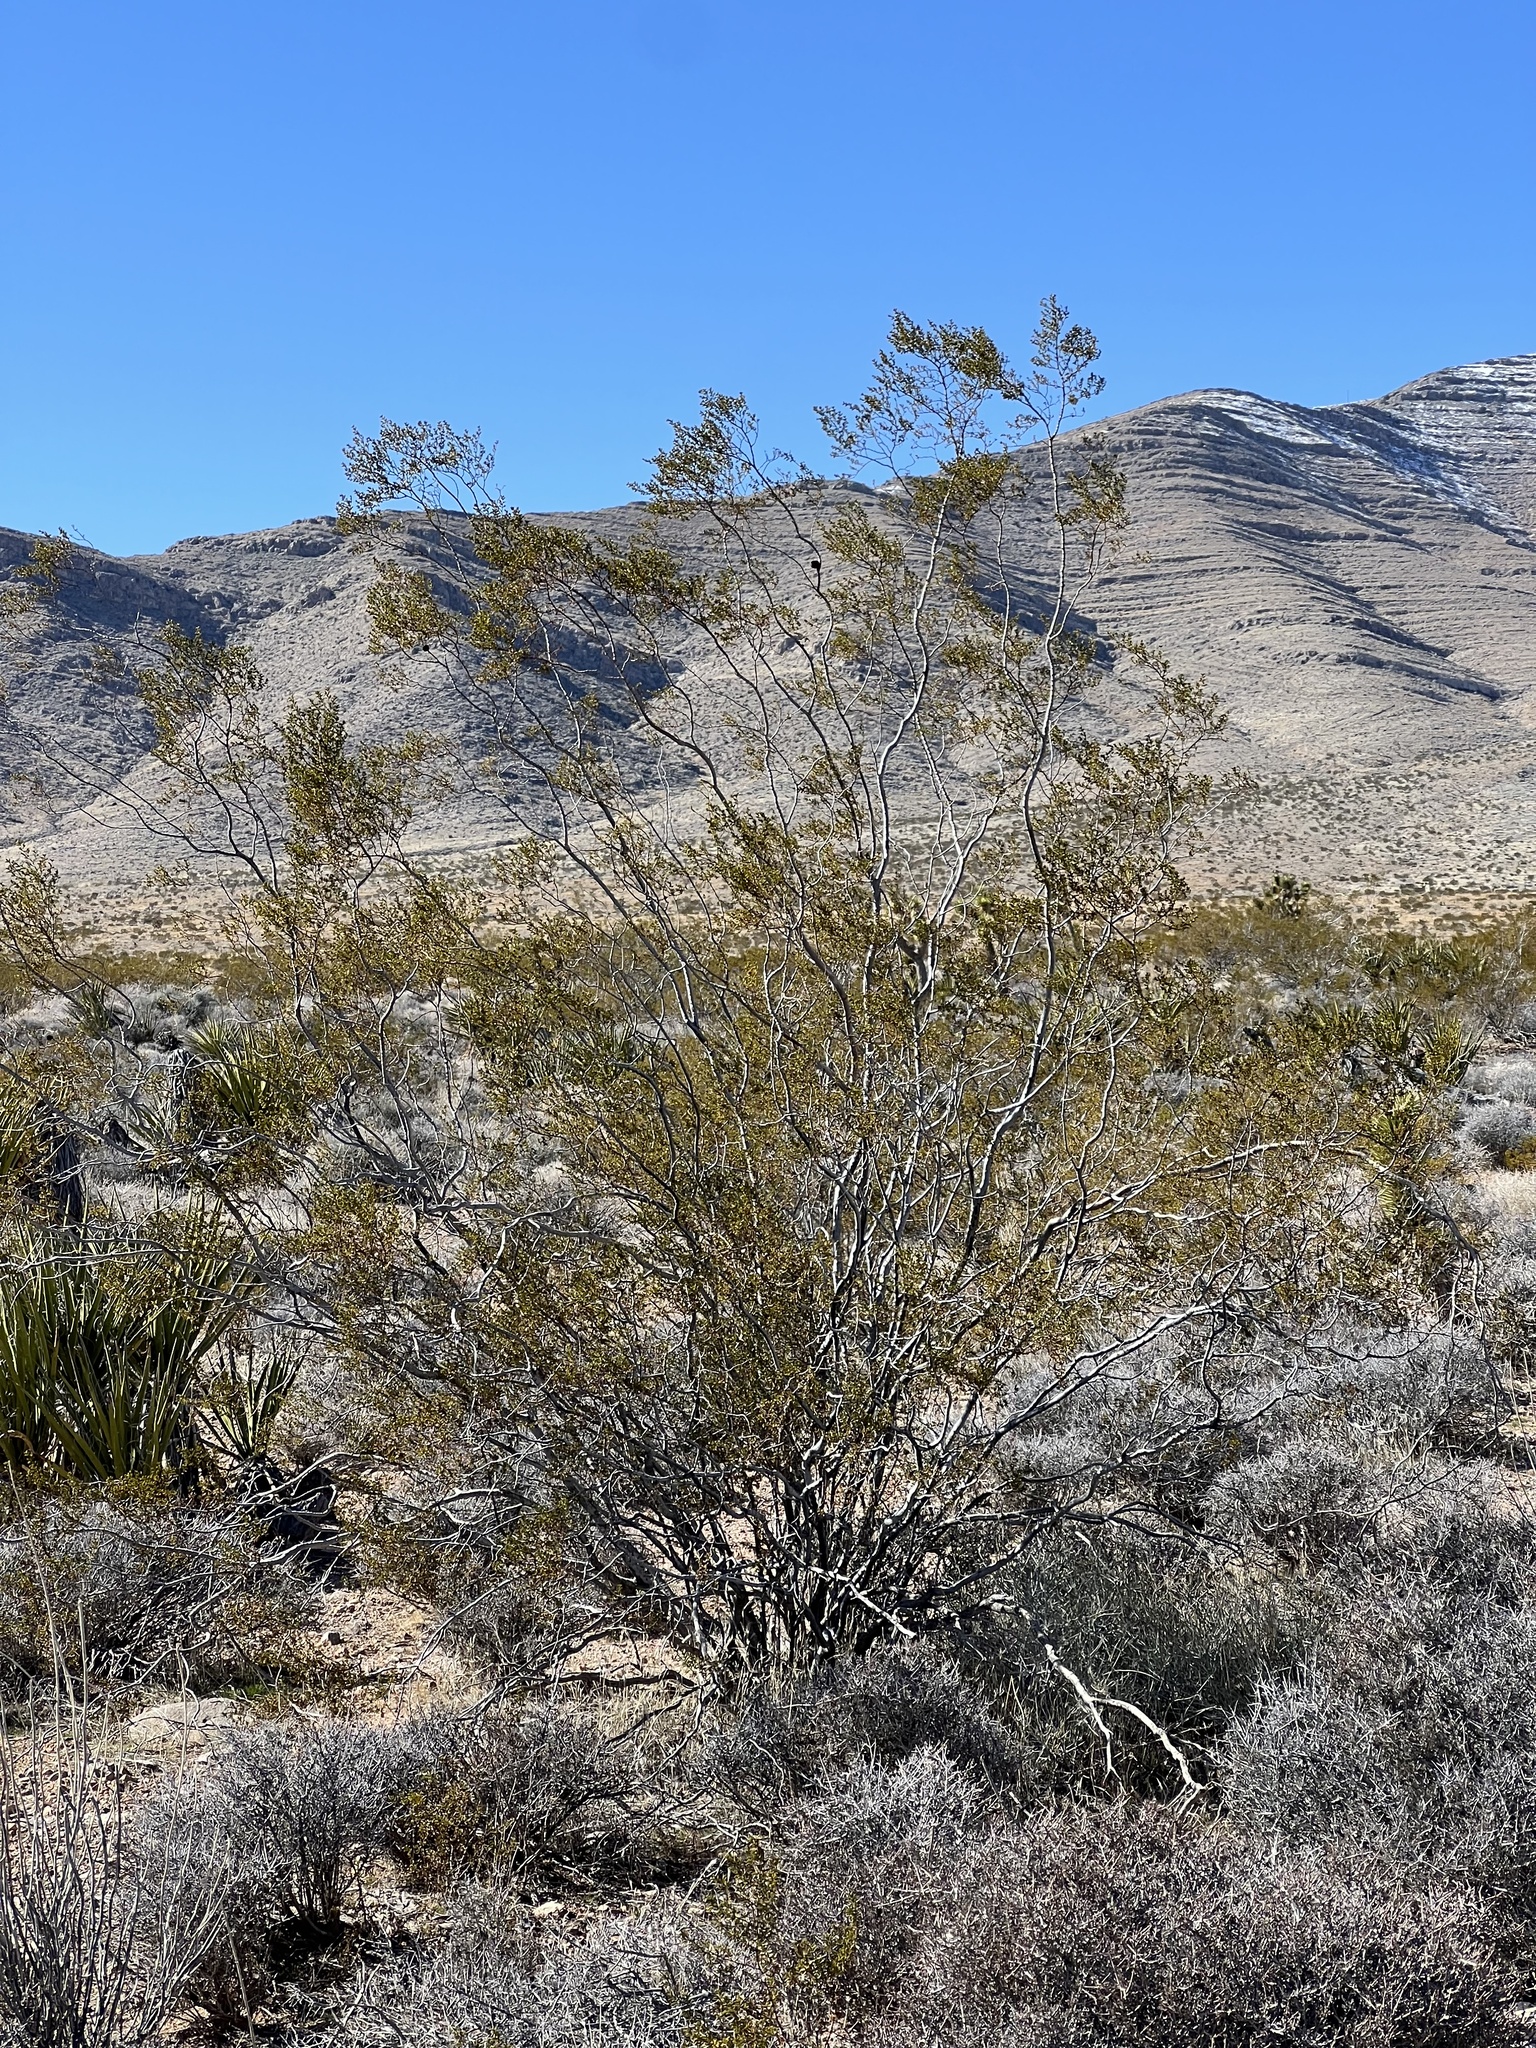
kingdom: Plantae
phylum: Tracheophyta
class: Magnoliopsida
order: Zygophyllales
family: Zygophyllaceae
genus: Larrea
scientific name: Larrea tridentata
